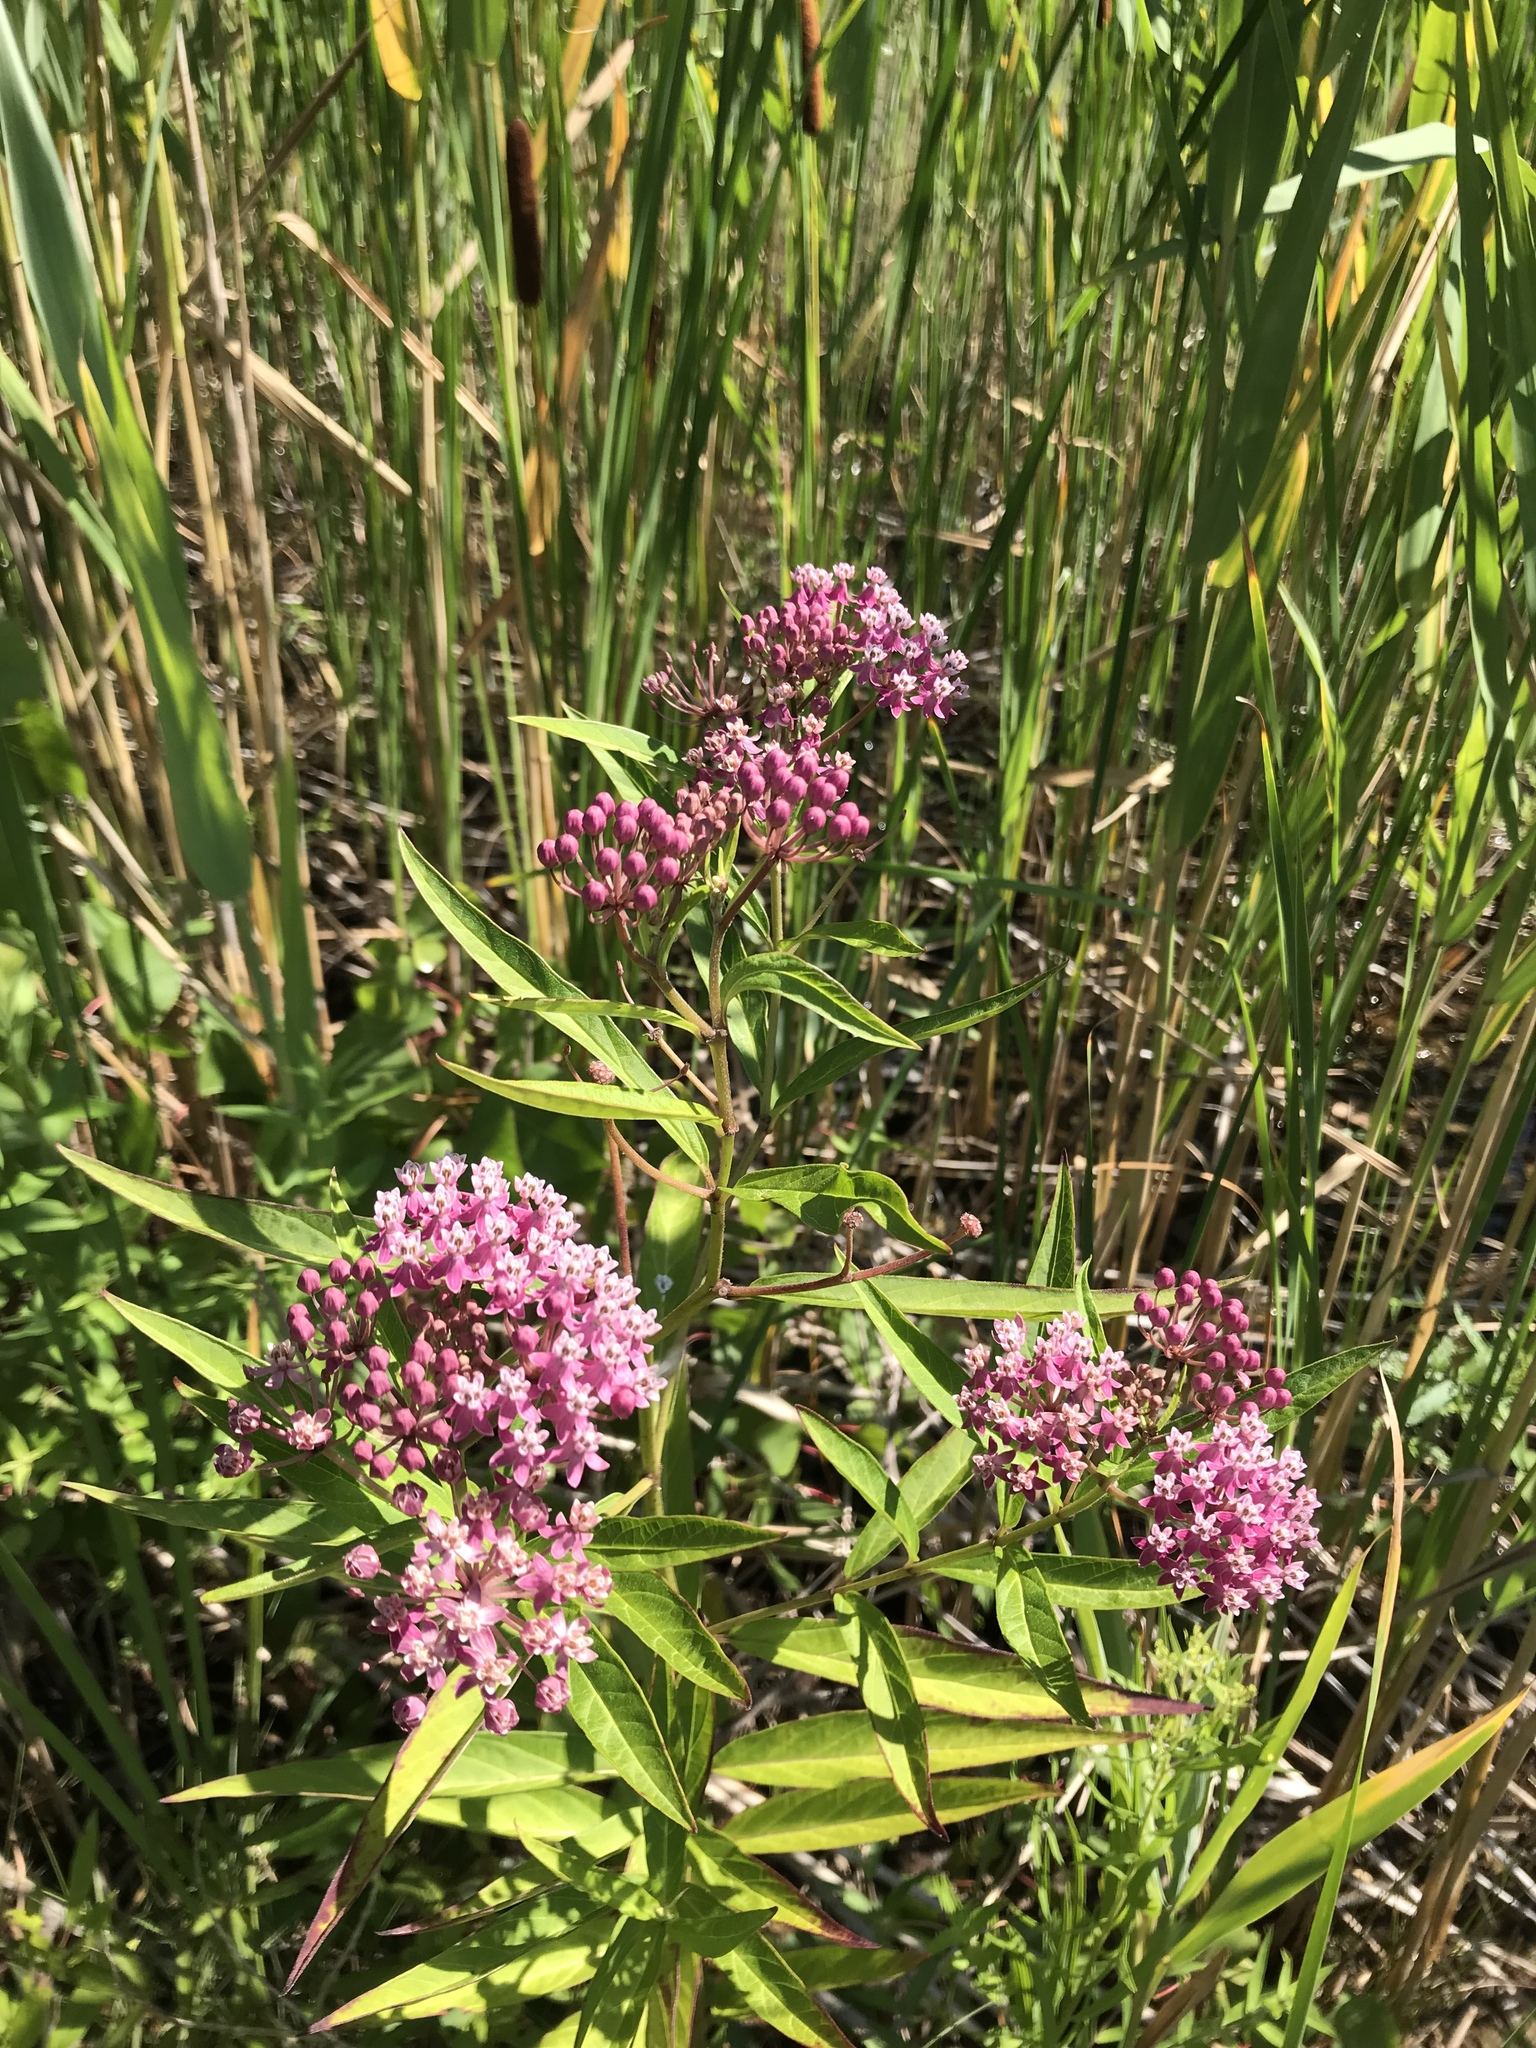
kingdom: Plantae
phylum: Tracheophyta
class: Magnoliopsida
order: Gentianales
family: Apocynaceae
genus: Asclepias
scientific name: Asclepias incarnata
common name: Swamp milkweed
